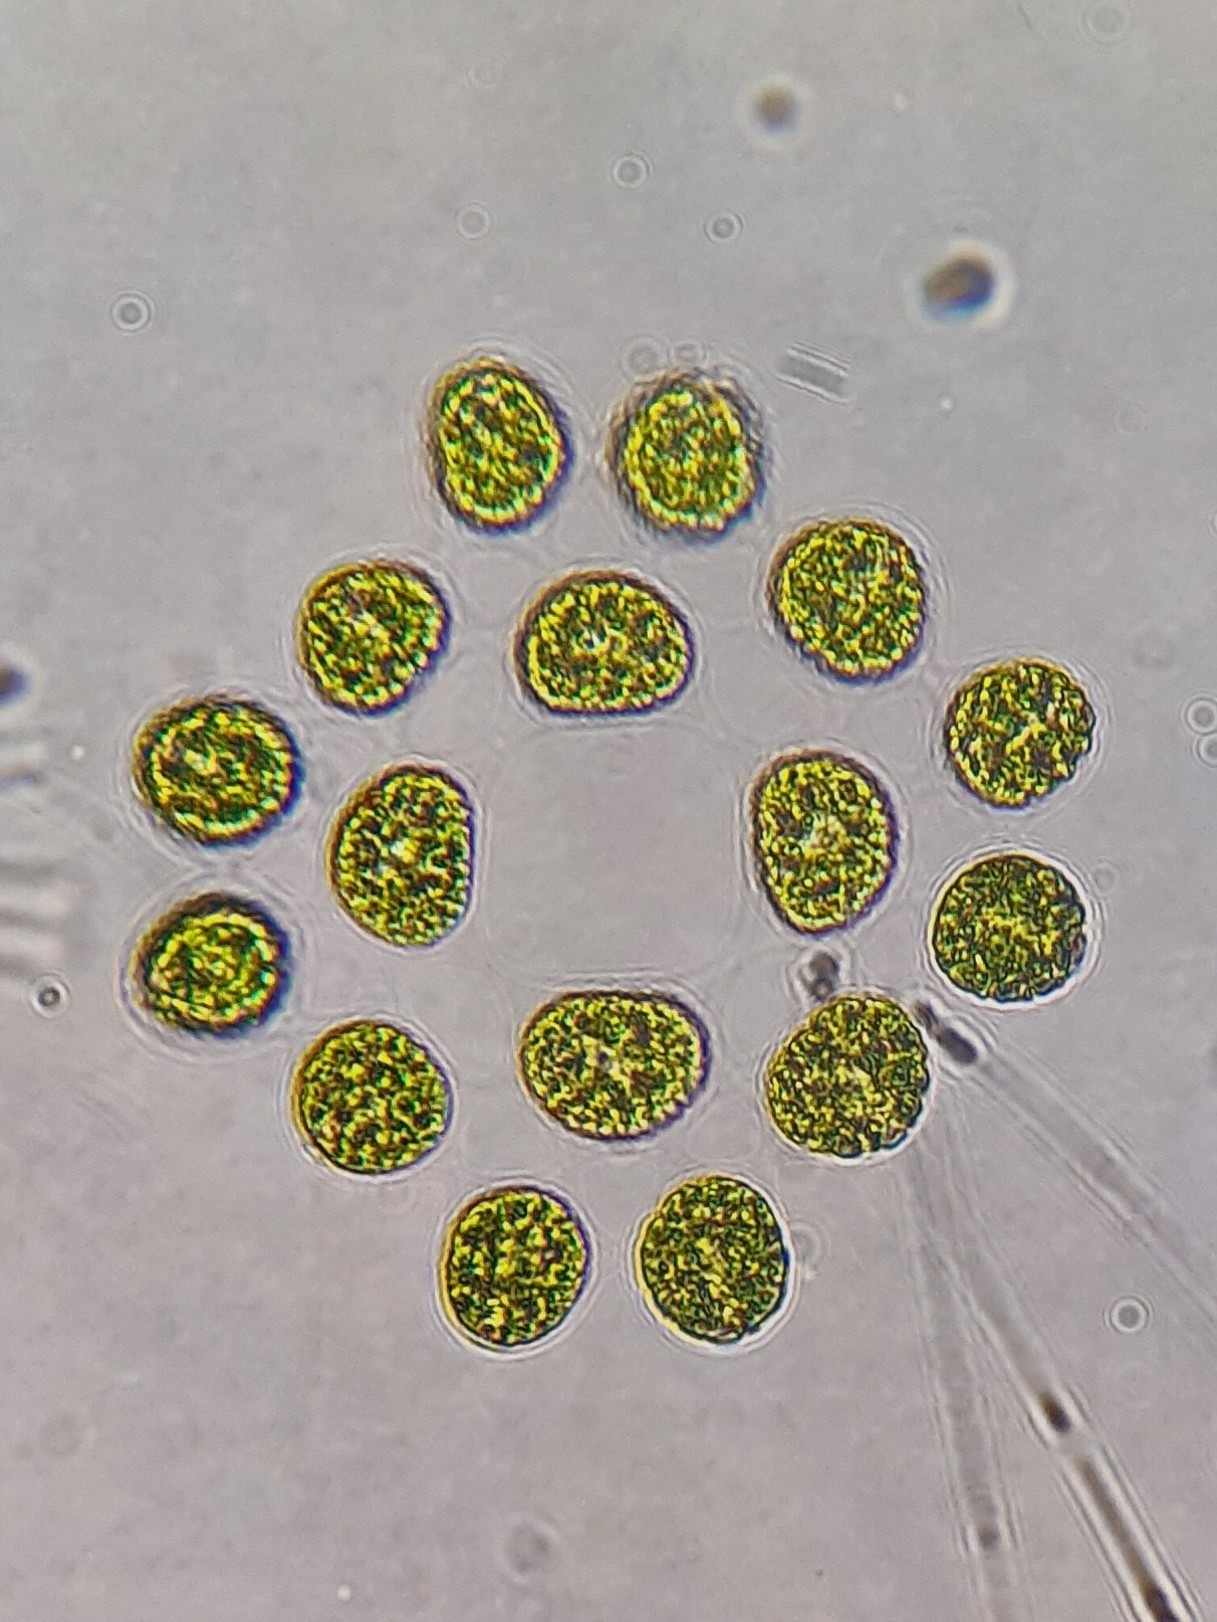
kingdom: Plantae
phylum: Chlorophyta
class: Chlorophyceae
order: Volvocales
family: Goniaceae
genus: Gonium
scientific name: Gonium pectorale
